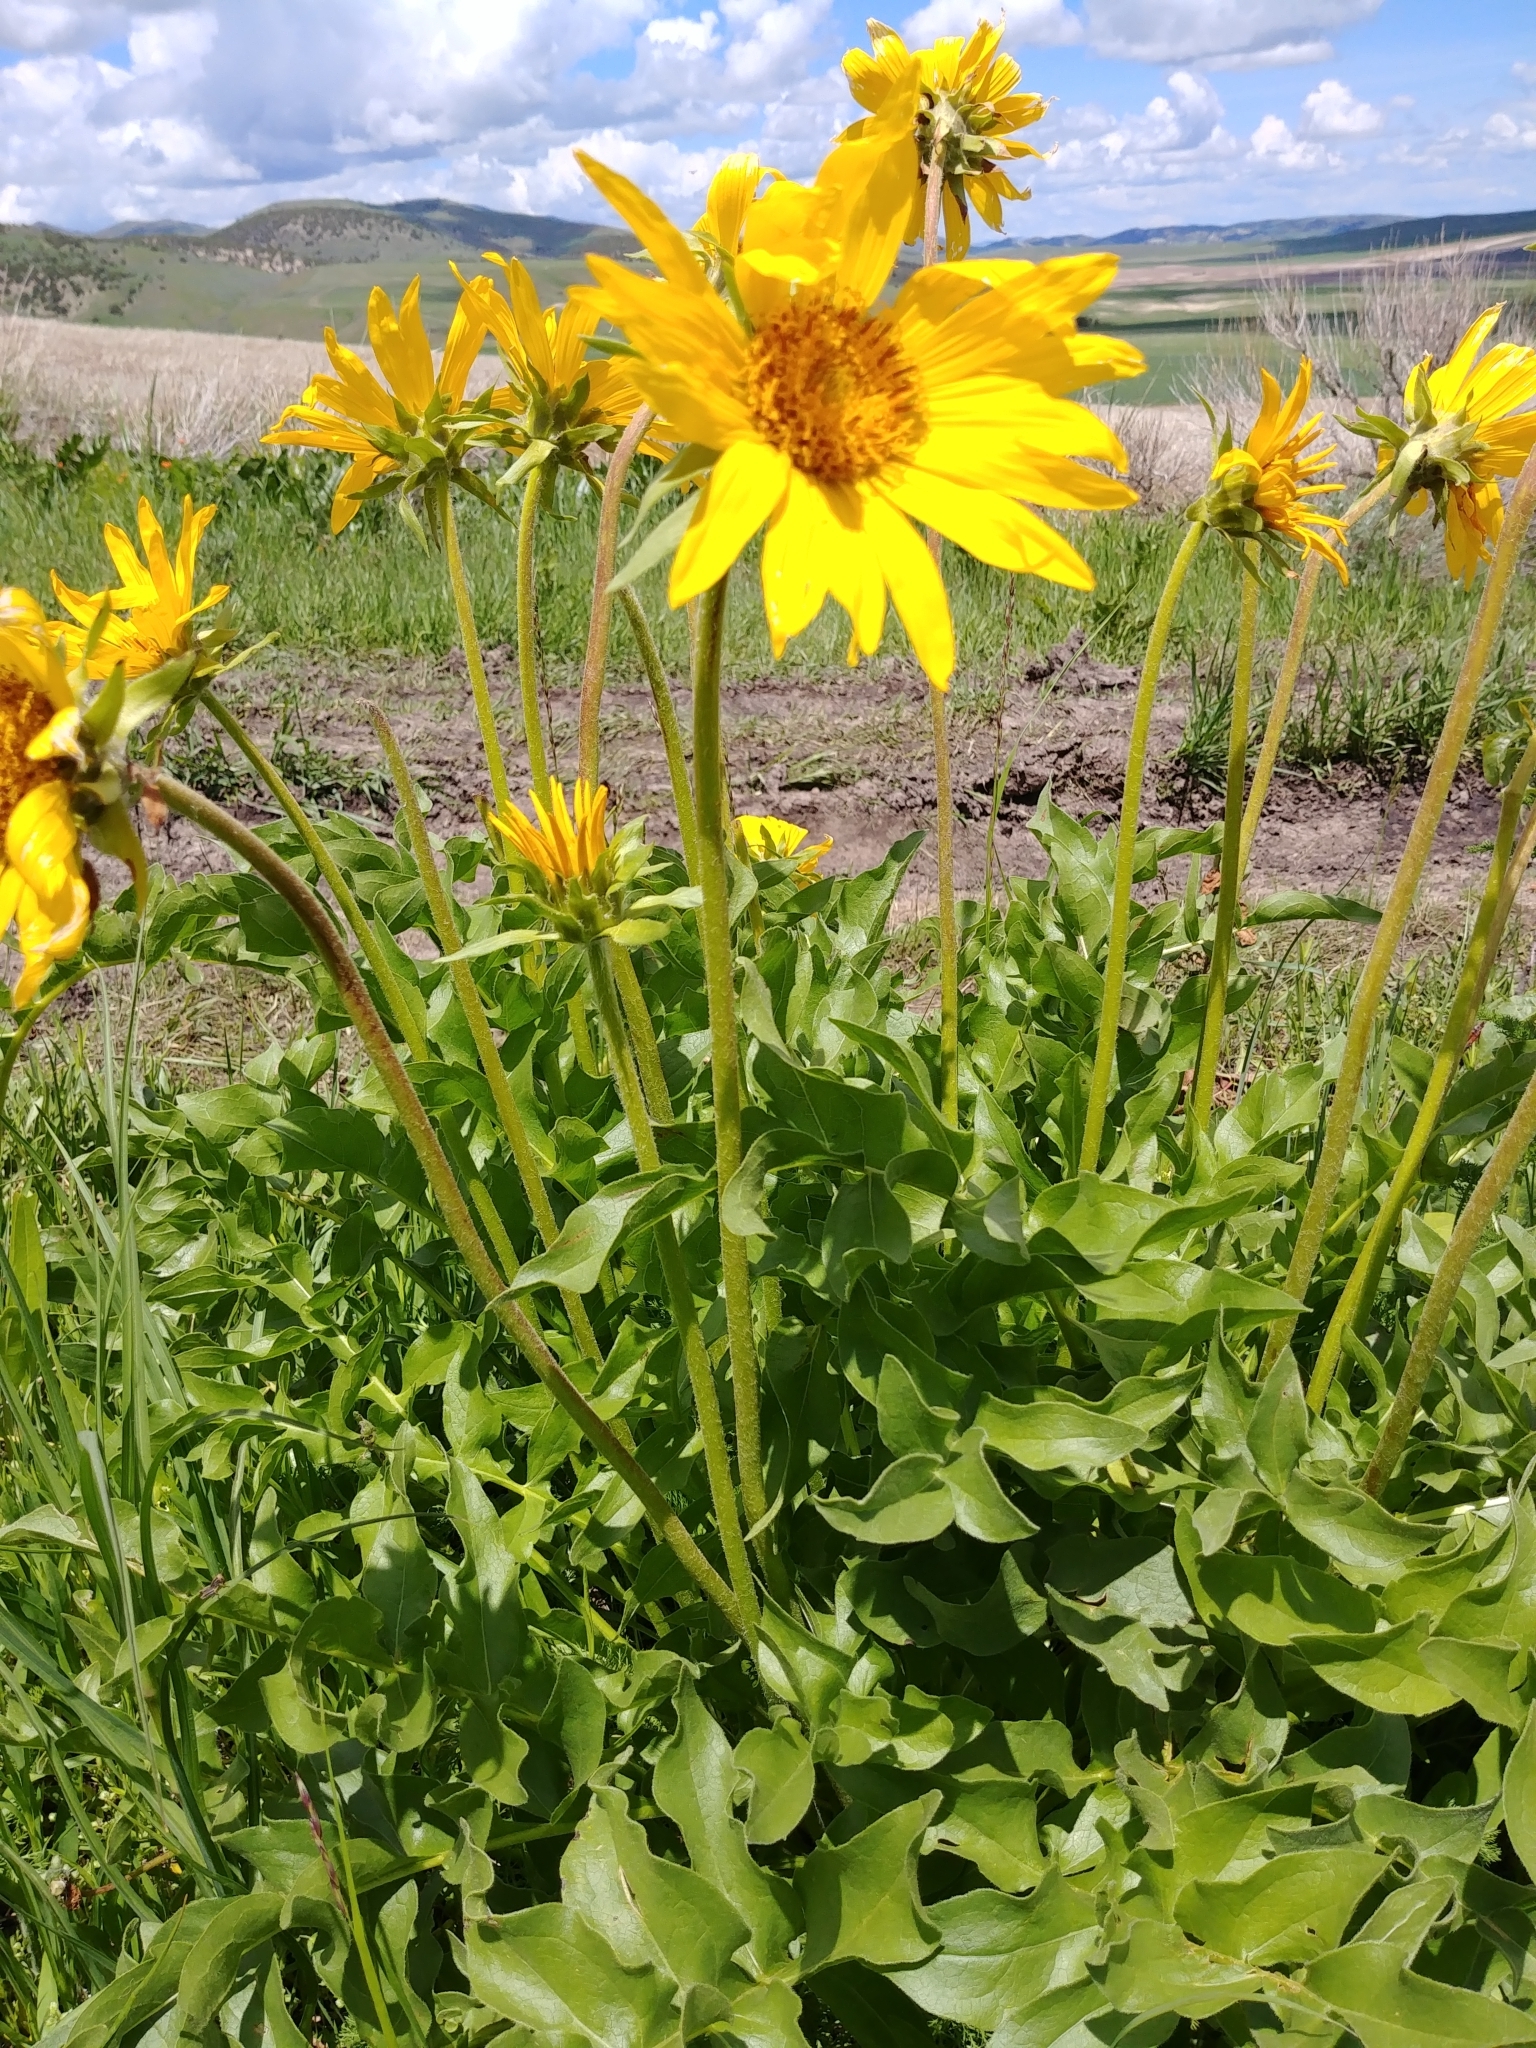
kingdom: Plantae
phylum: Tracheophyta
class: Magnoliopsida
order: Asterales
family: Asteraceae
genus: Balsamorhiza
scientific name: Balsamorhiza macrophylla
